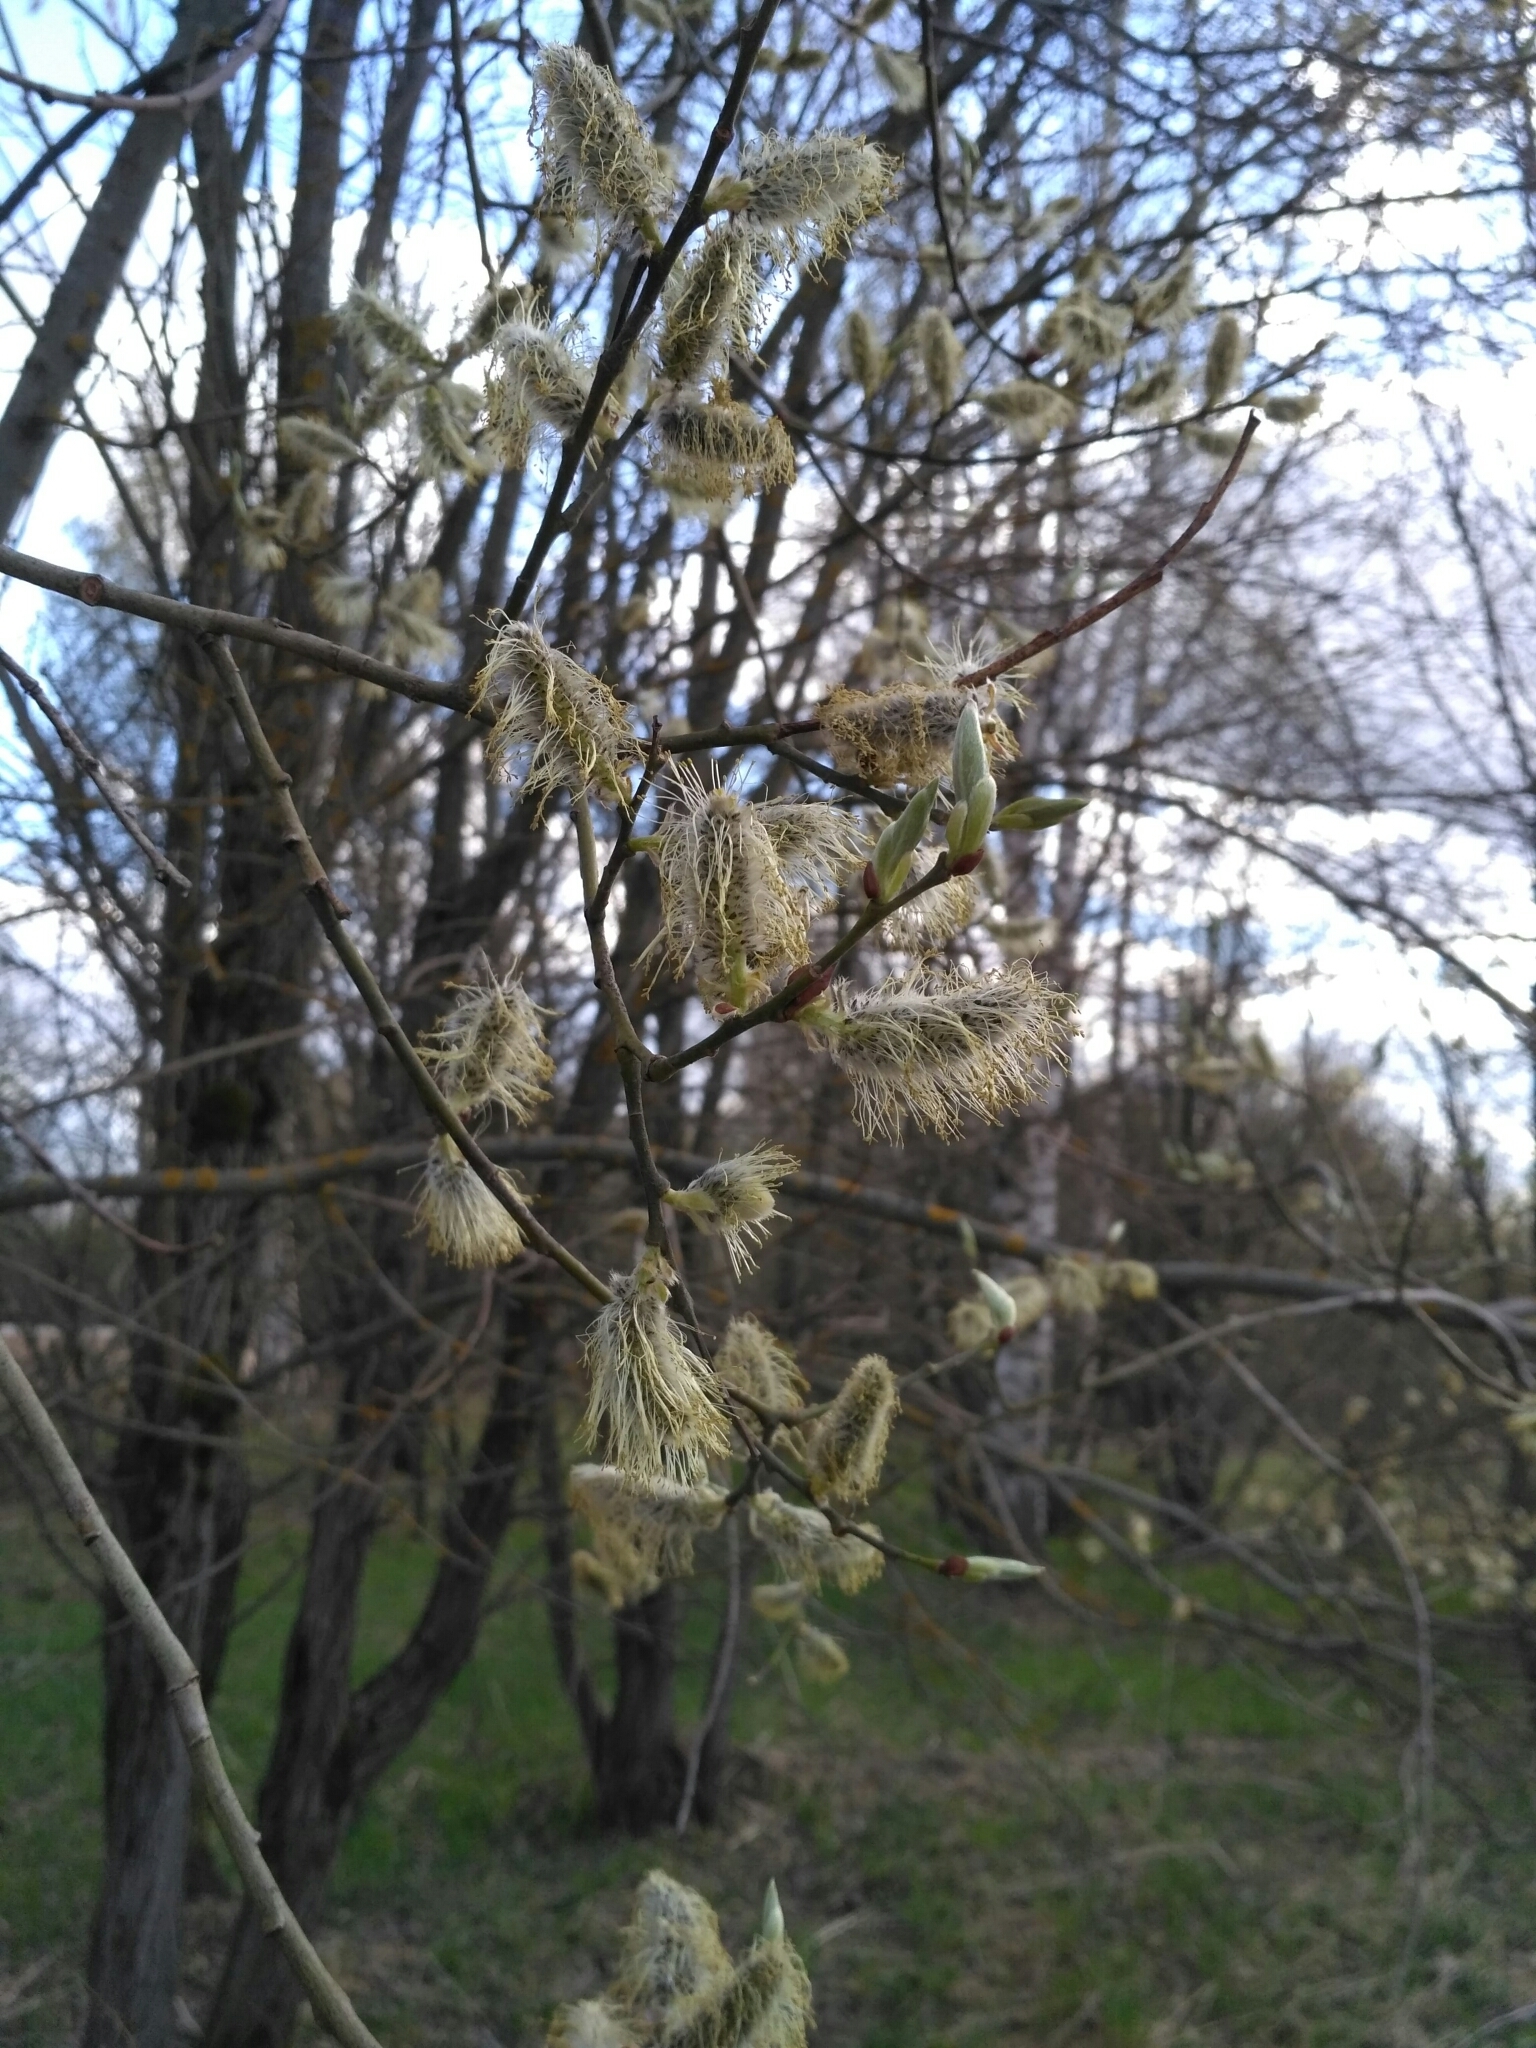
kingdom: Plantae
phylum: Tracheophyta
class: Magnoliopsida
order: Malpighiales
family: Salicaceae
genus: Salix
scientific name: Salix caprea
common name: Goat willow
